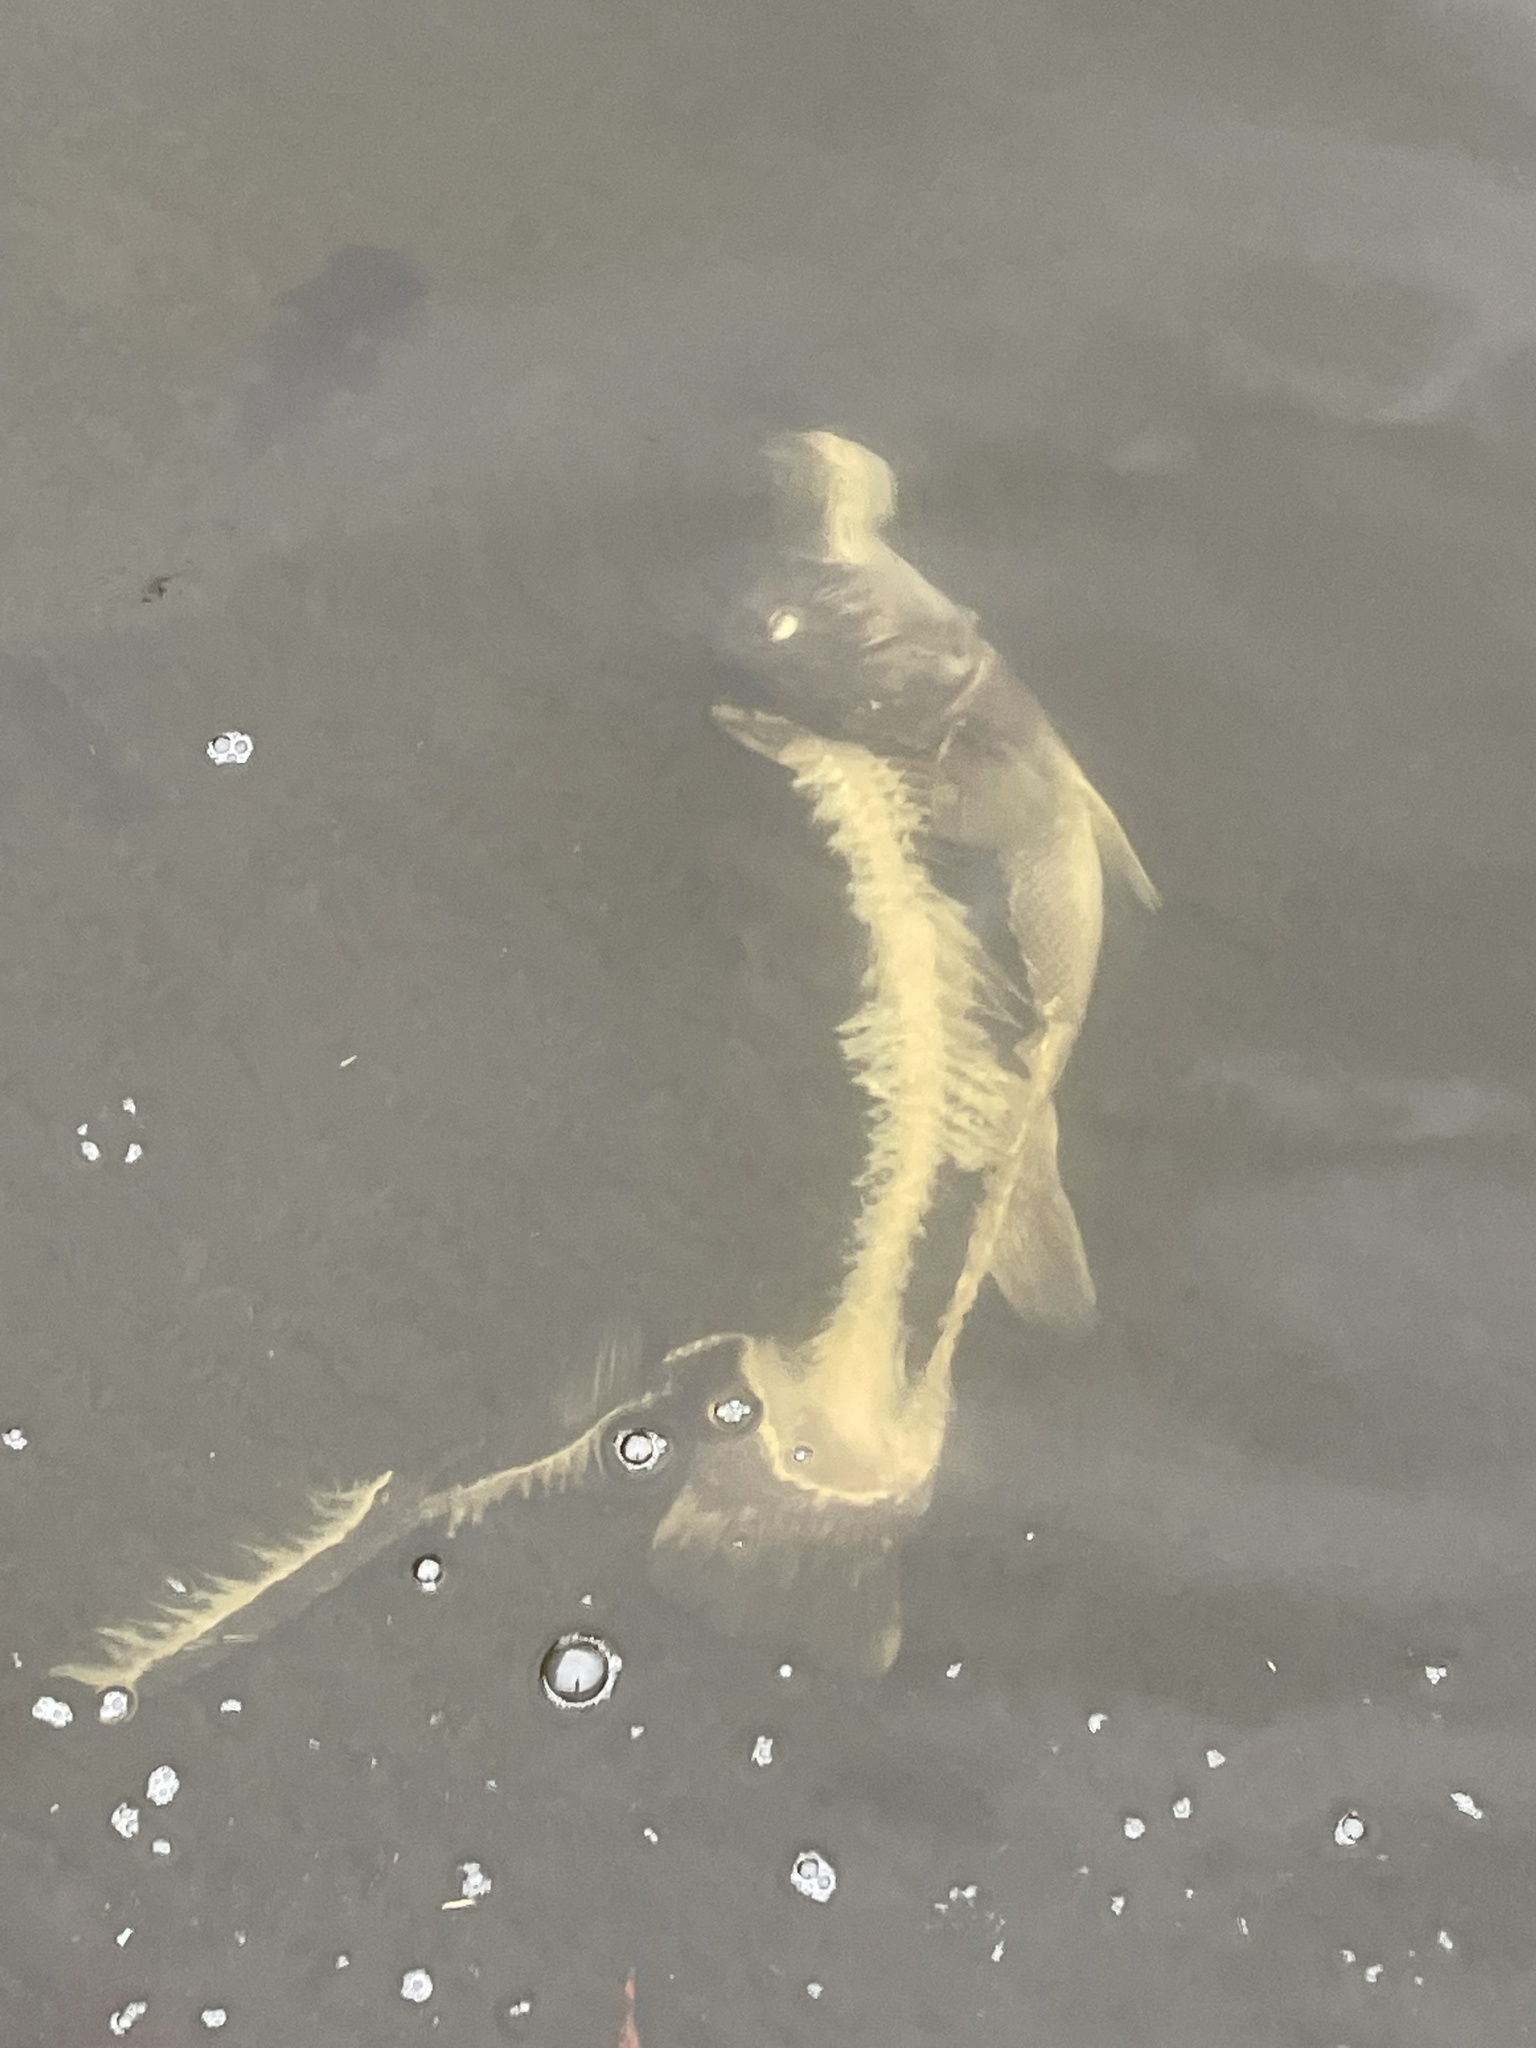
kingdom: Animalia
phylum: Chordata
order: Perciformes
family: Labridae
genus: Tautoga
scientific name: Tautoga onitis
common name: Tautog
